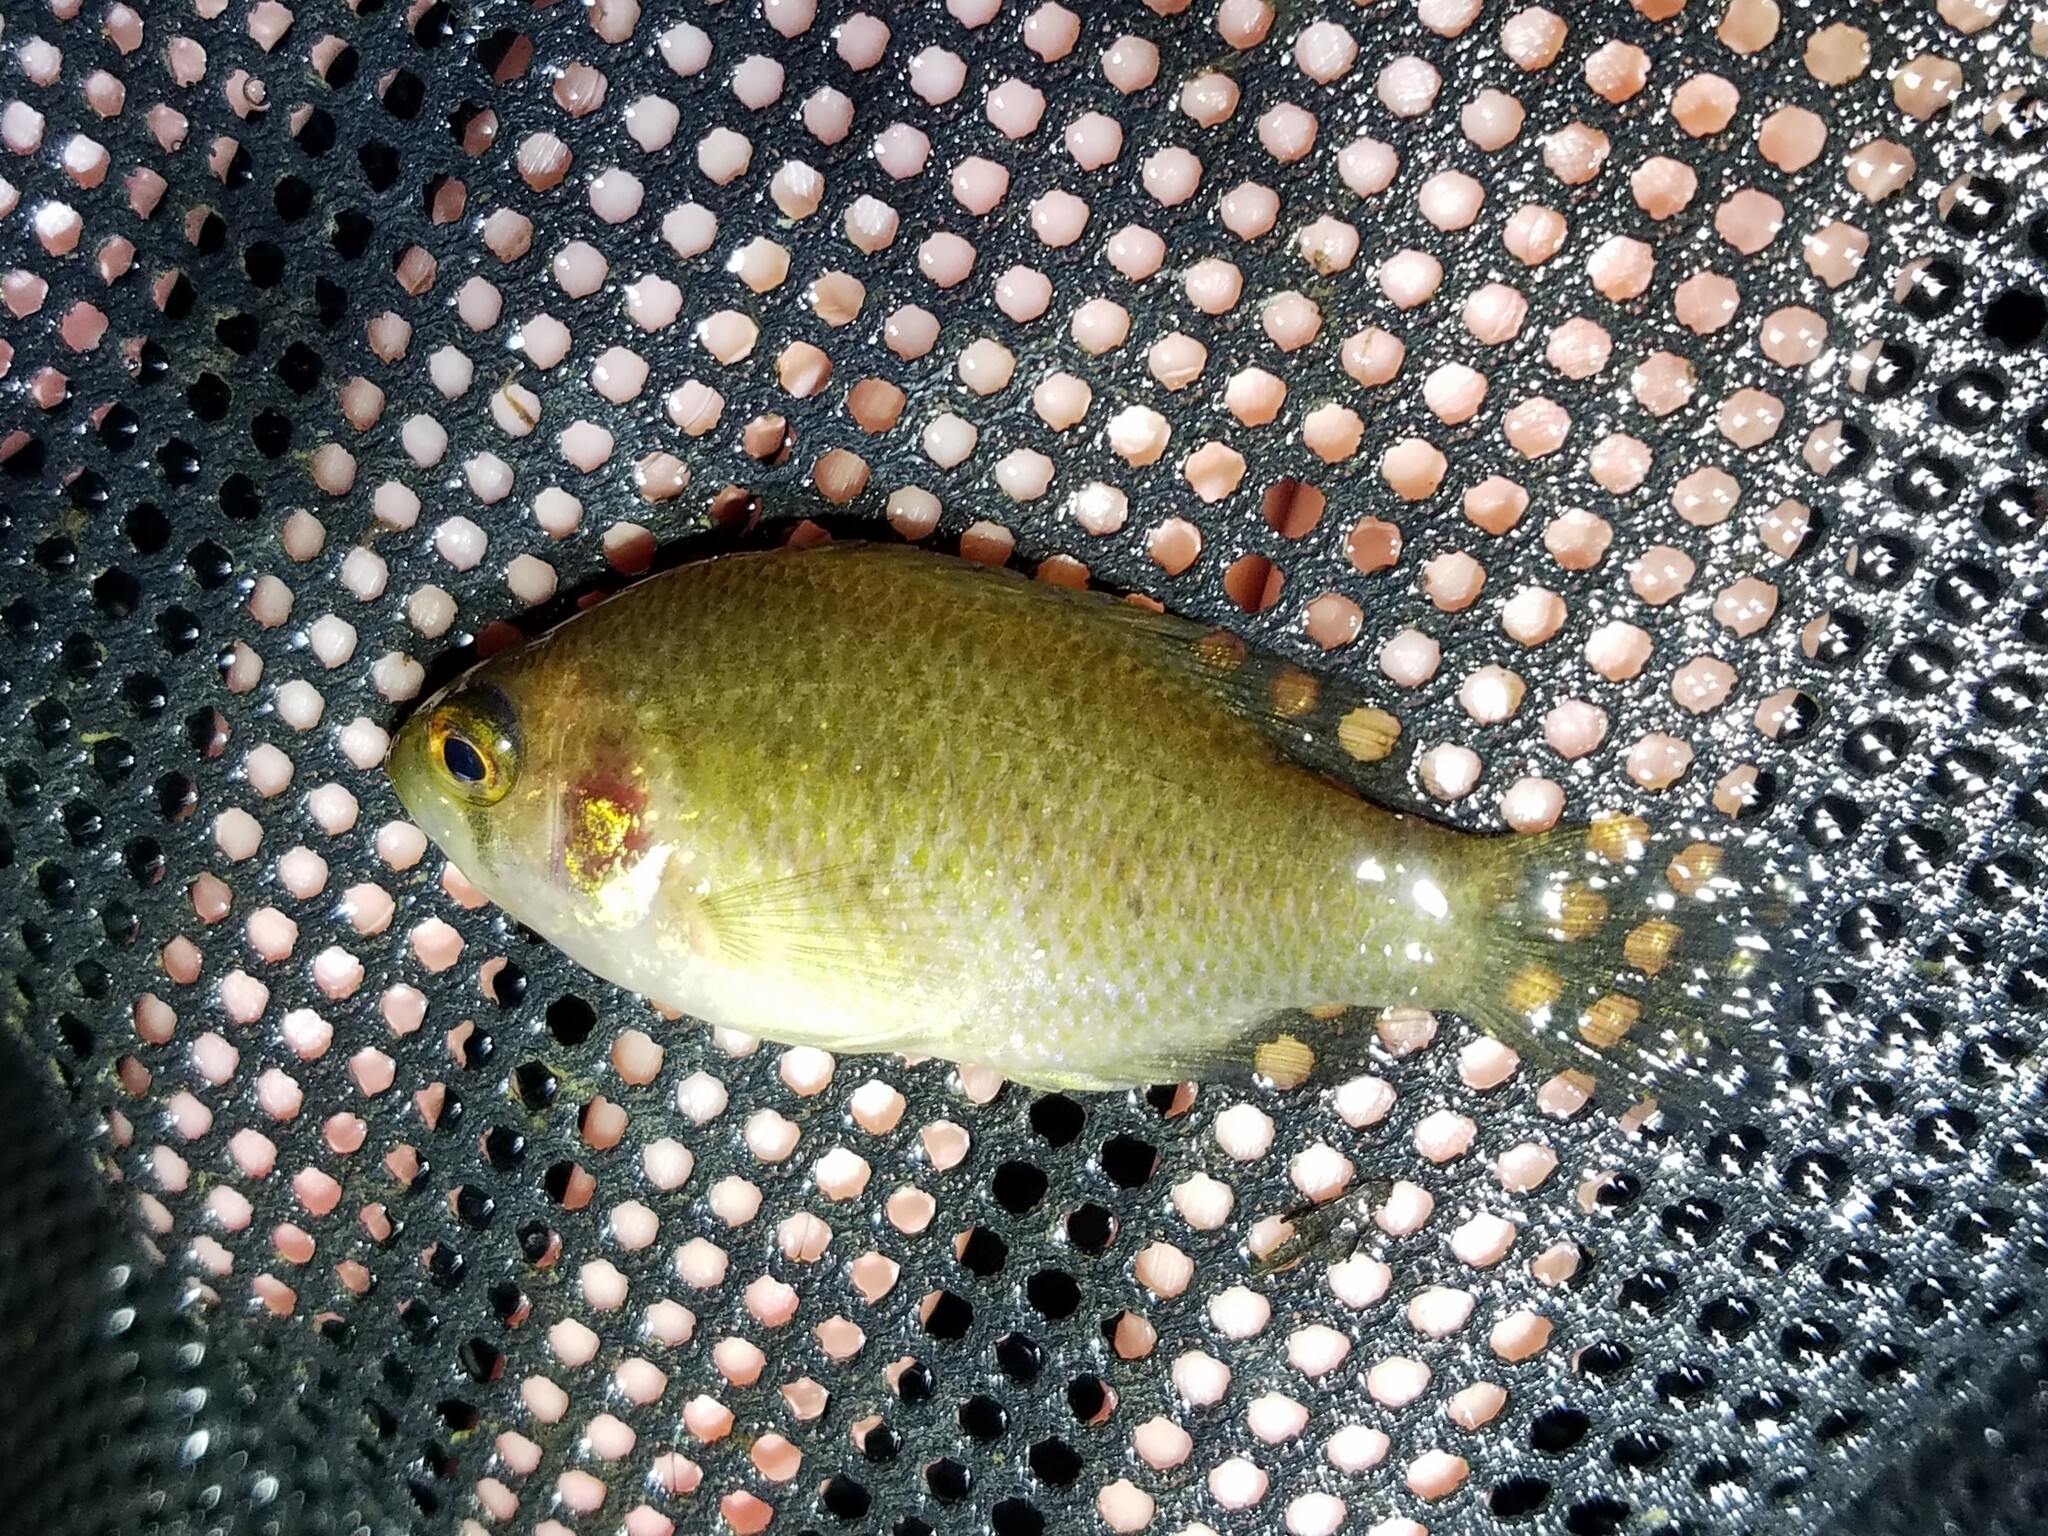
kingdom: Animalia
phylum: Chordata
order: Perciformes
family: Centrarchidae
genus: Enneacanthus
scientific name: Enneacanthus obesus
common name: Banded sunfish
